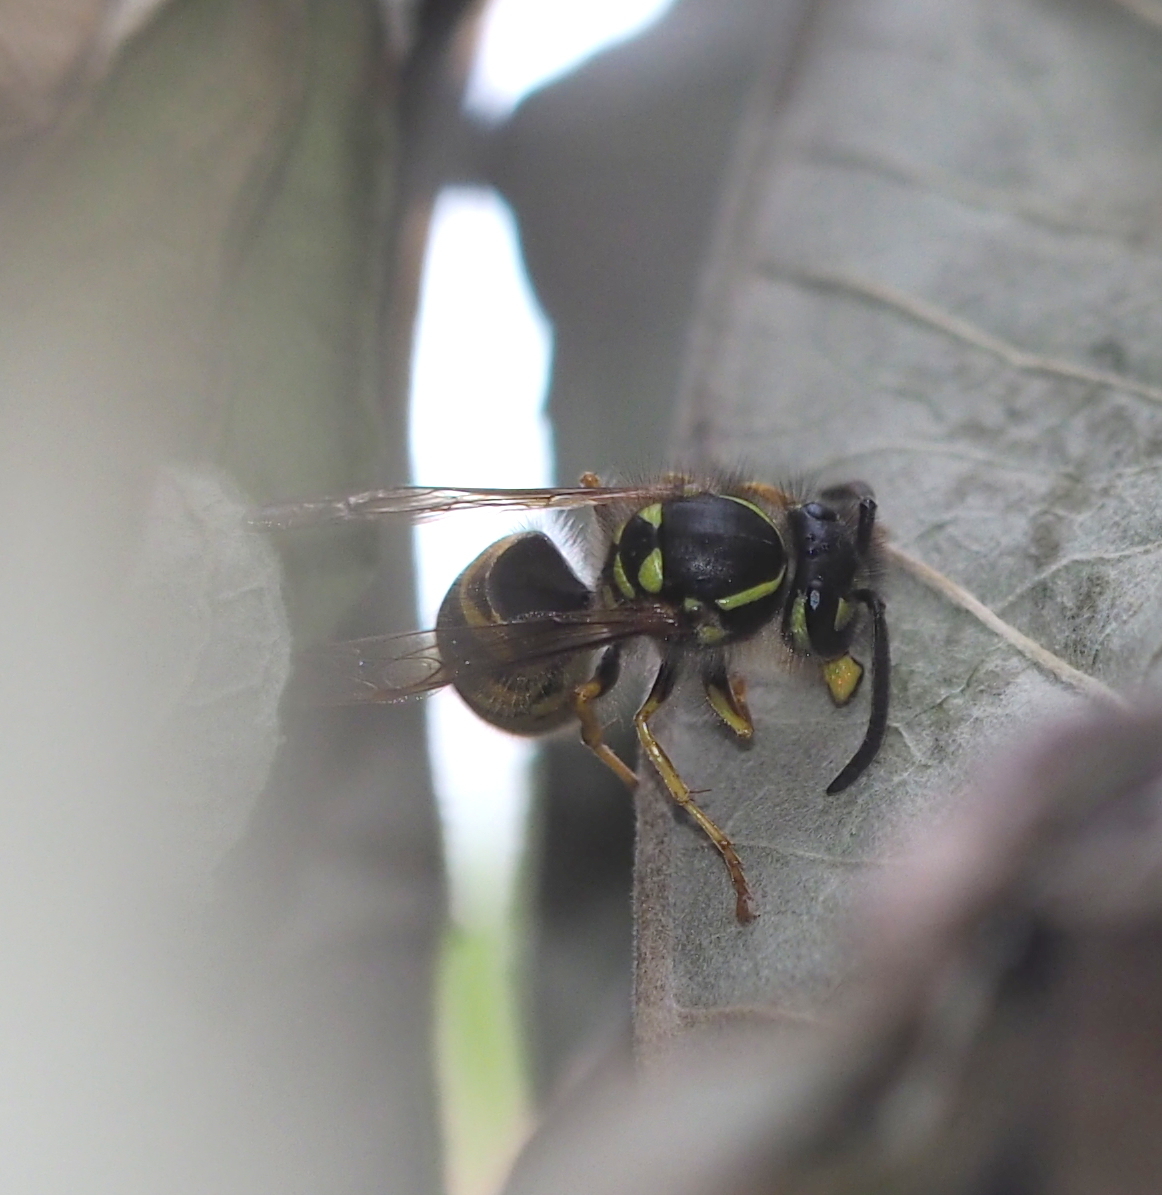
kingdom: Animalia
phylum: Arthropoda
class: Insecta
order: Hymenoptera
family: Vespidae
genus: Vespula
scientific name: Vespula vulgaris
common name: Common wasp
